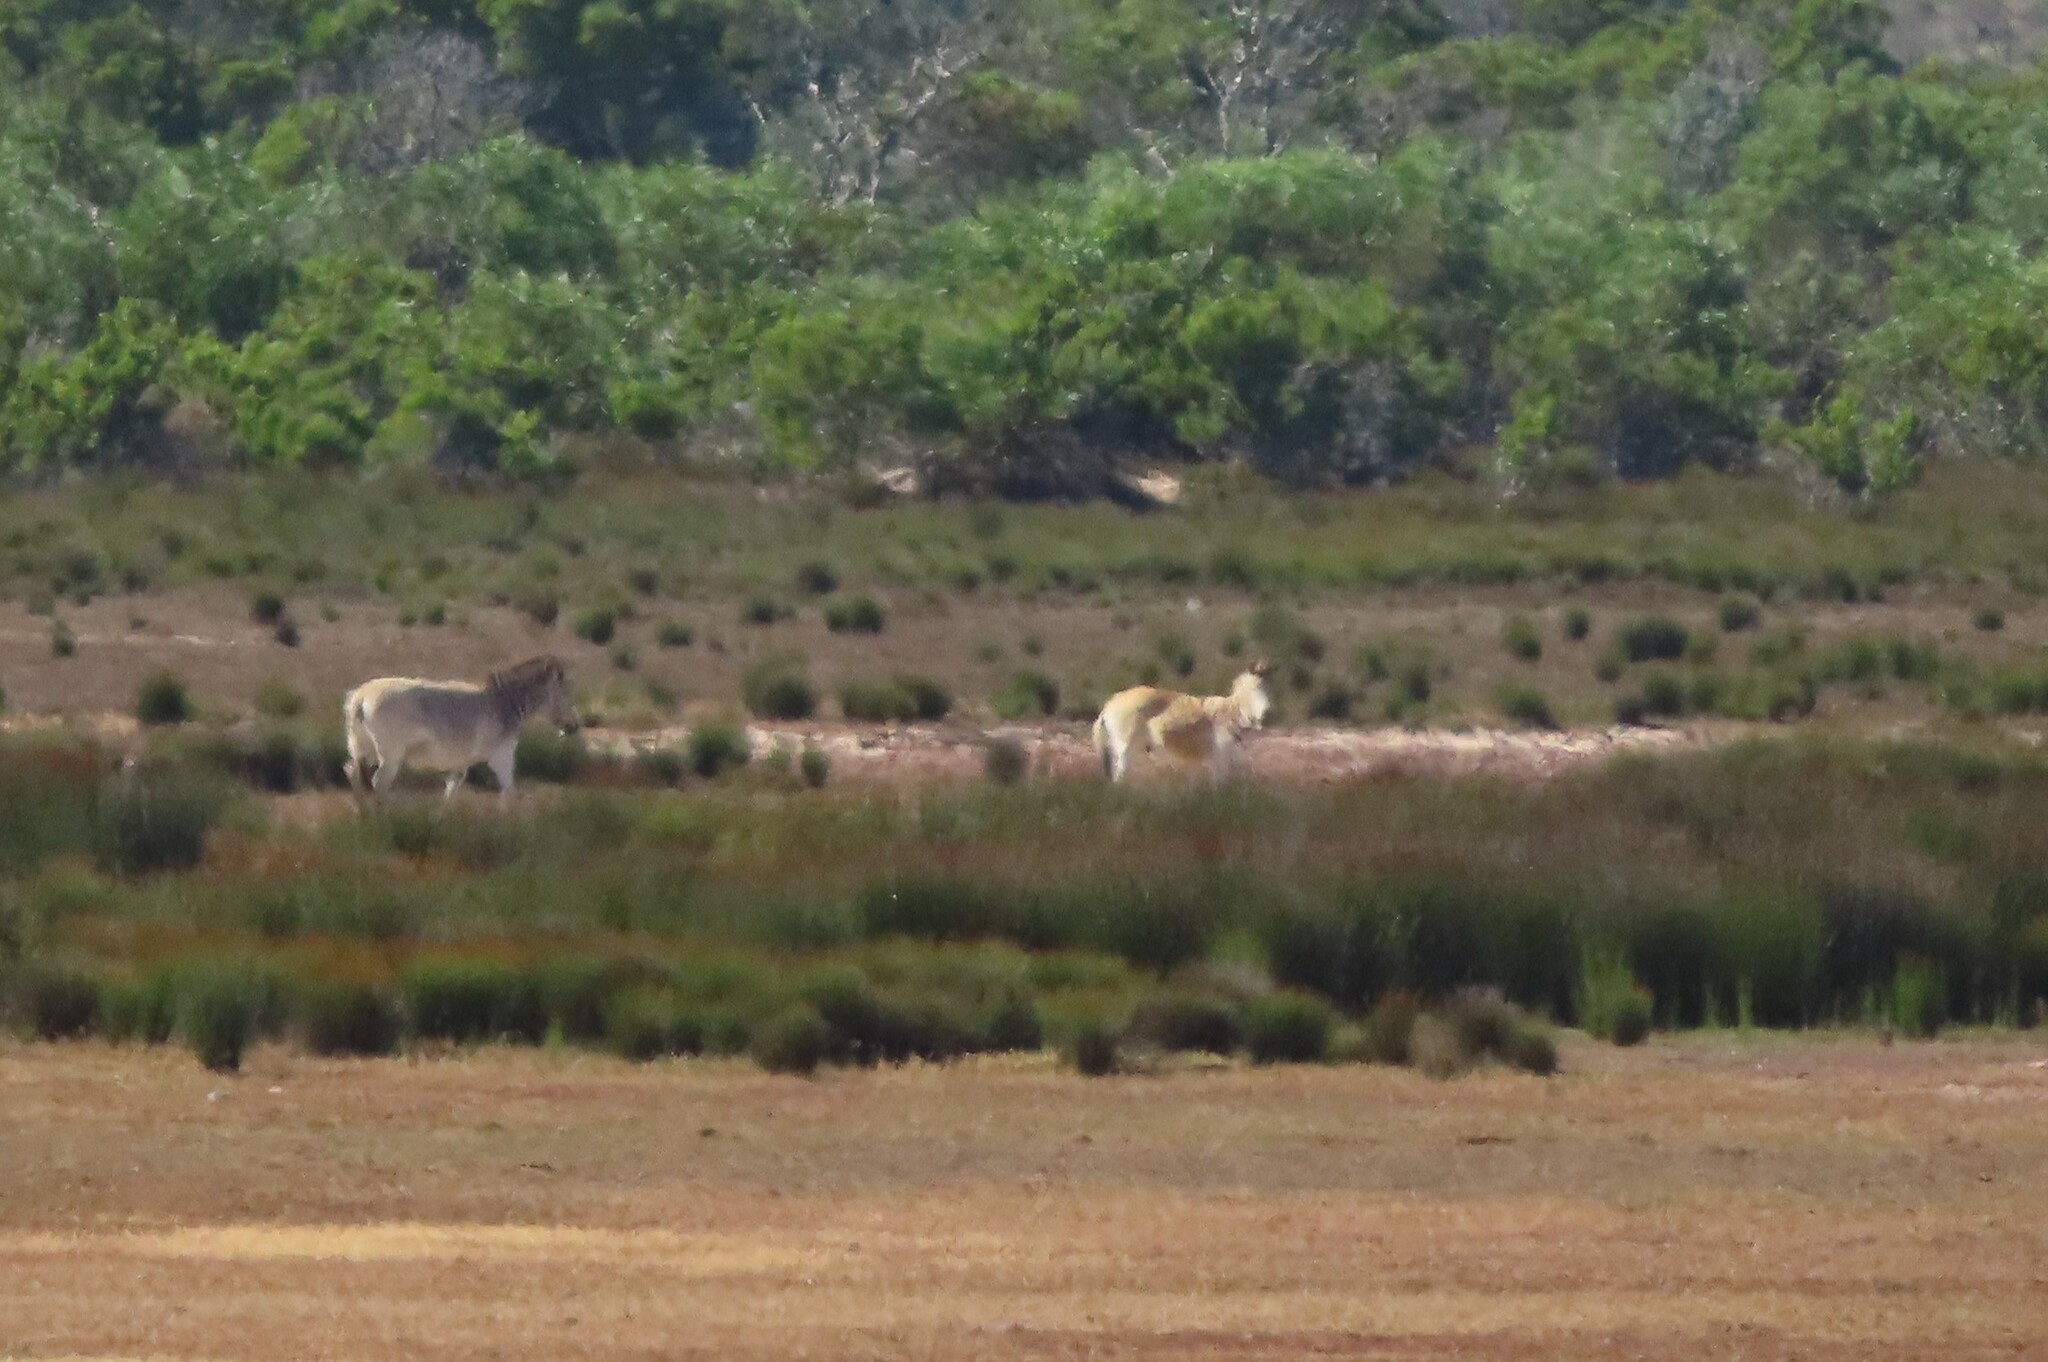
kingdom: Animalia
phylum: Chordata
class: Mammalia
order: Perissodactyla
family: Equidae
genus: Equus
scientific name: Equus quagga
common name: Plains zebra
